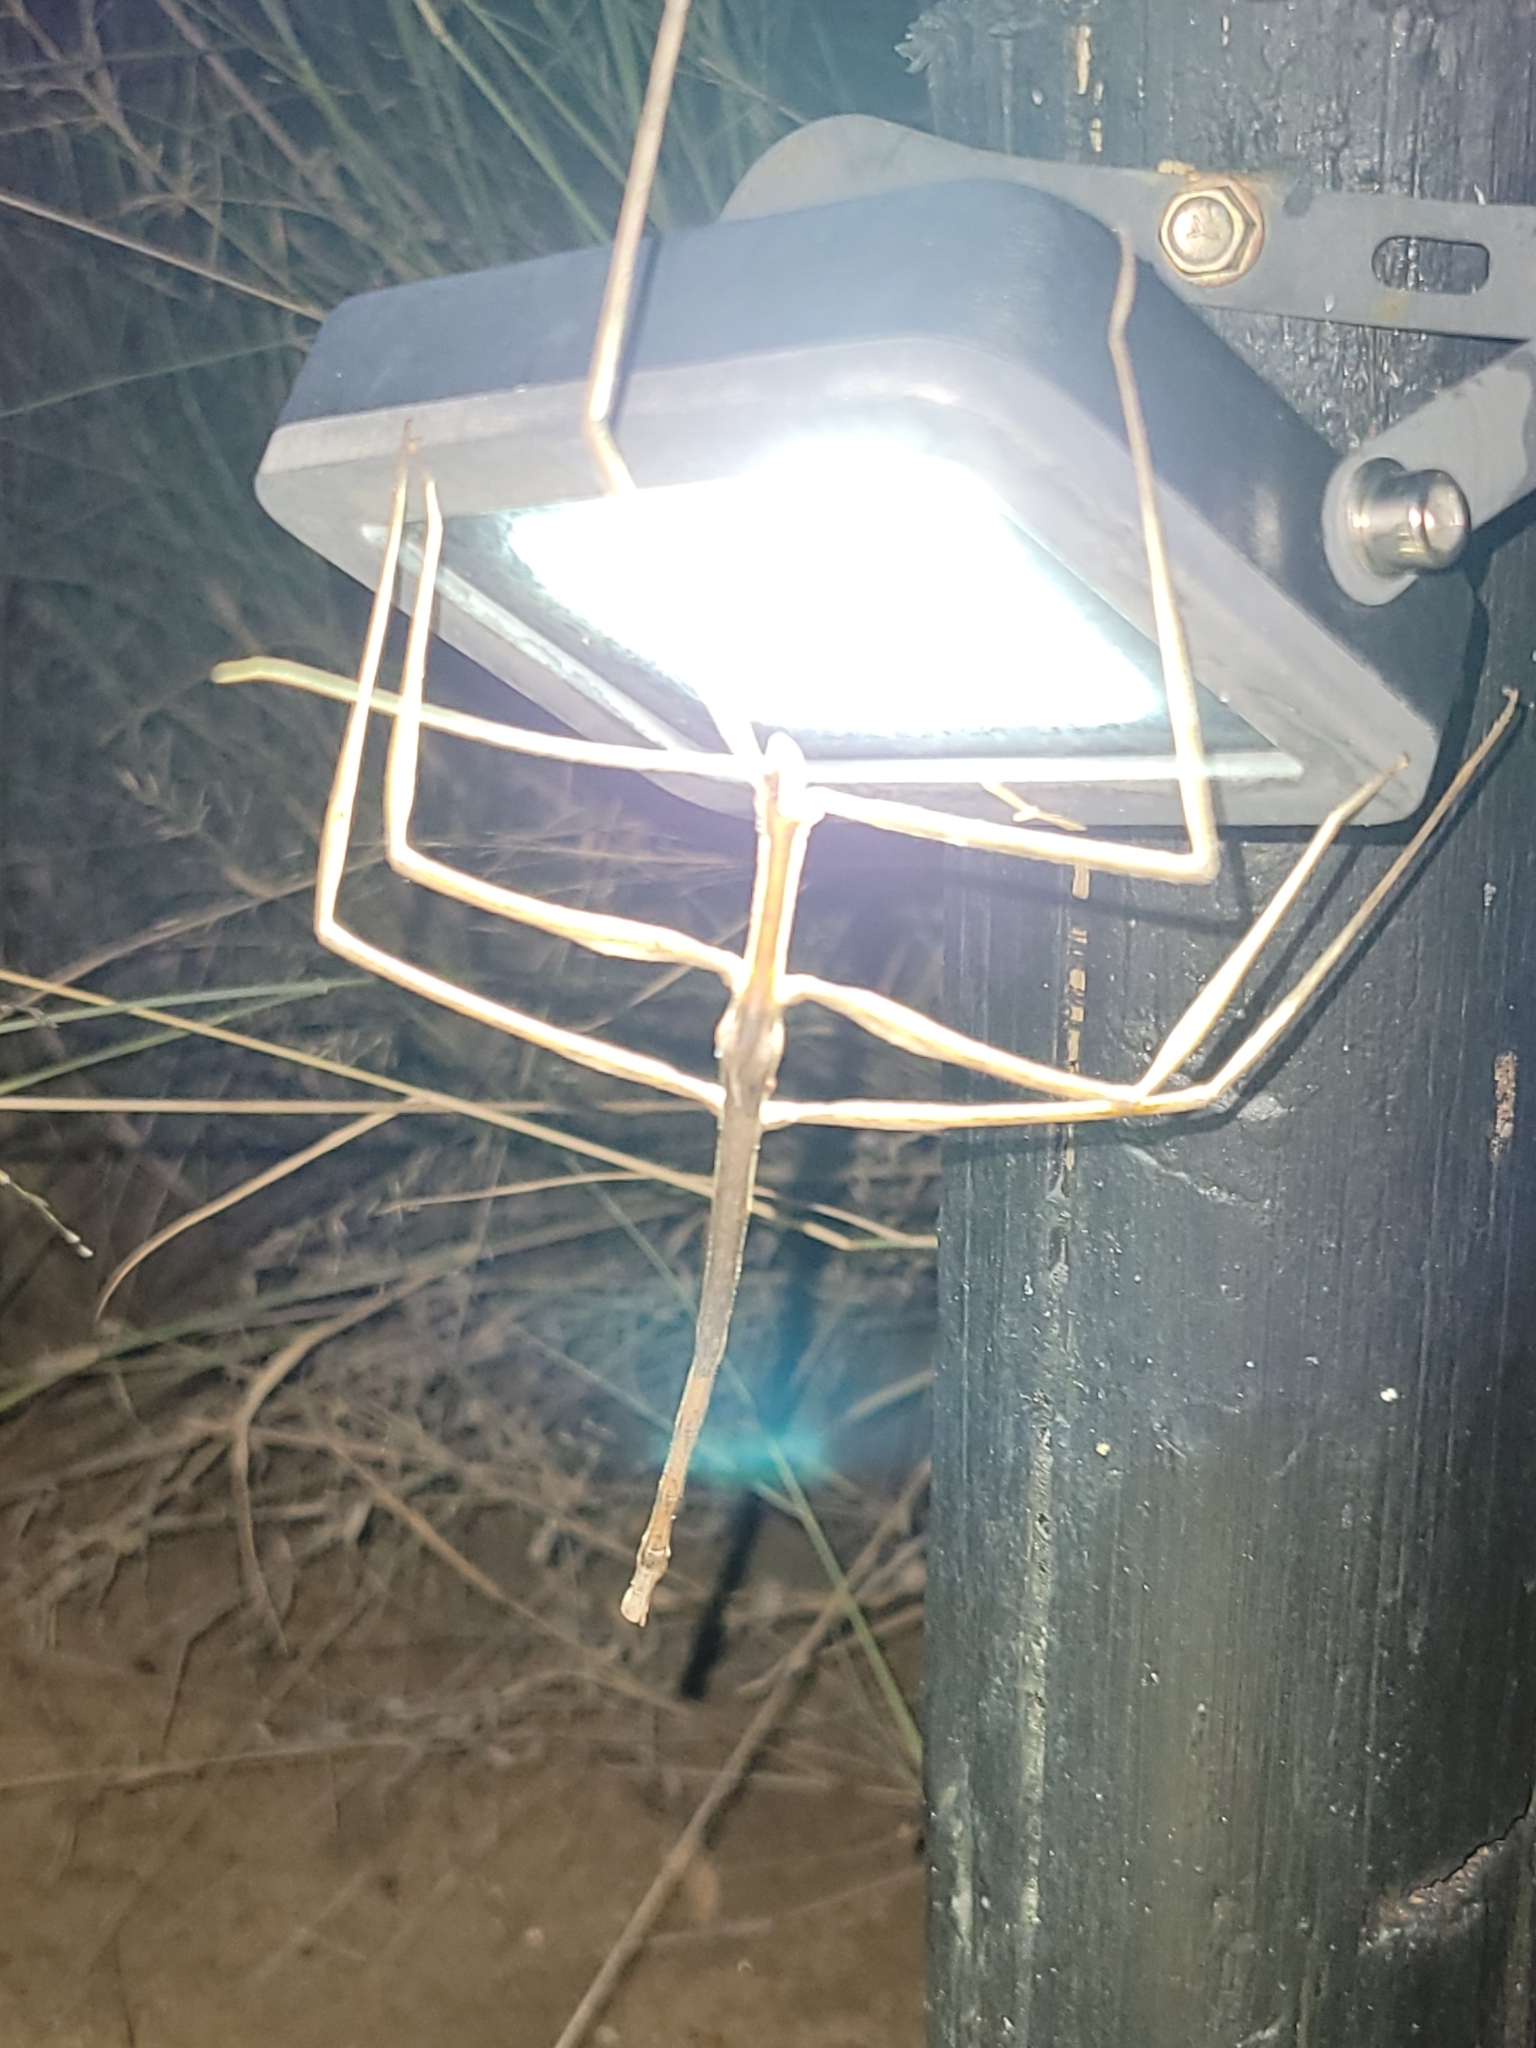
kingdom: Animalia
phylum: Arthropoda
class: Insecta
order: Phasmida
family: Diapheromeridae
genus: Bactrododema
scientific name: Bactrododema tiaratum
